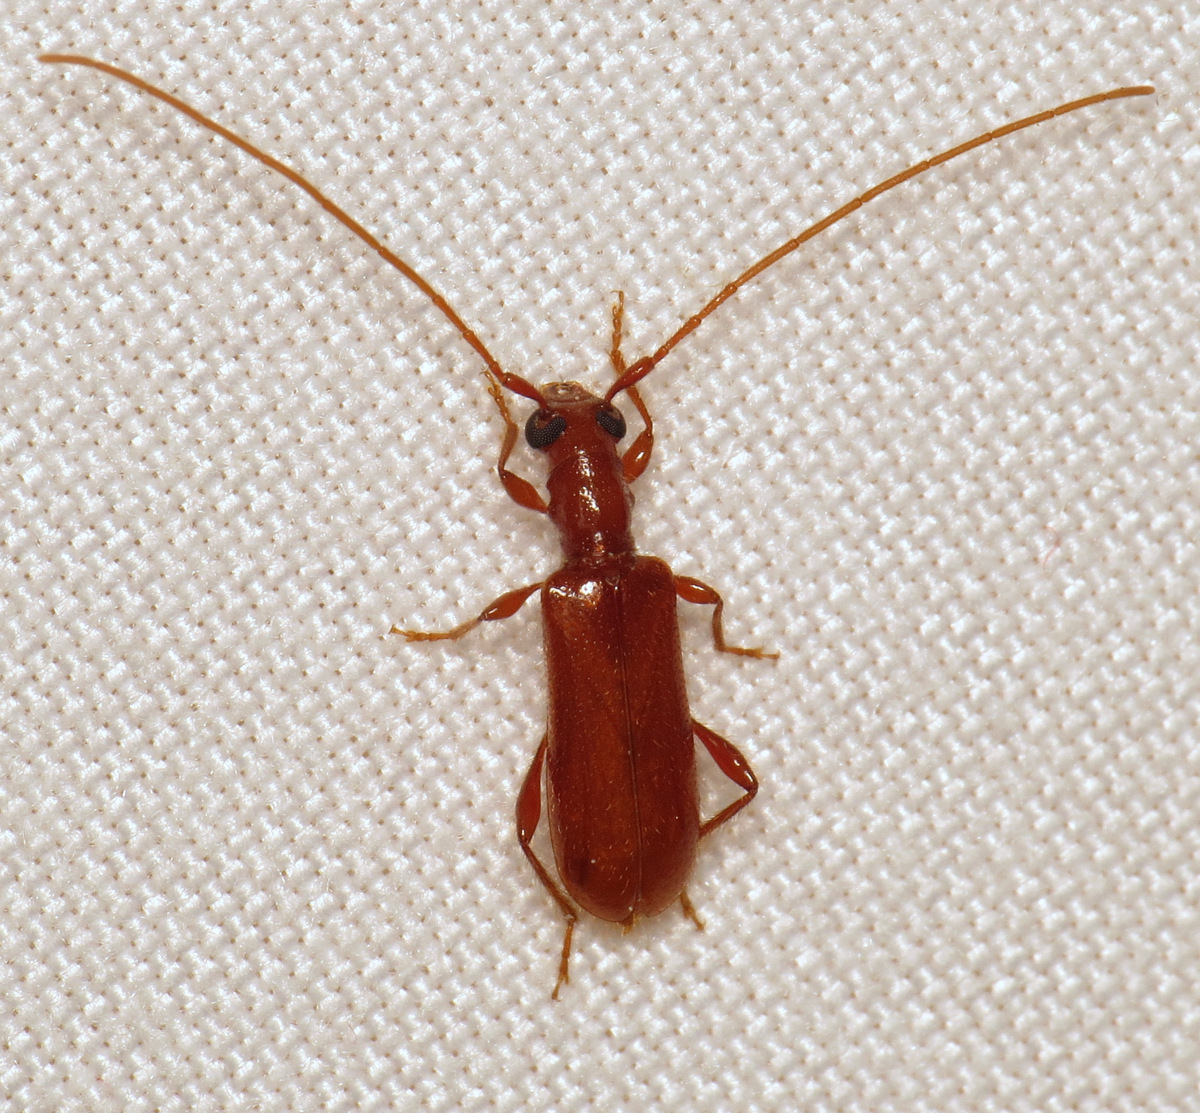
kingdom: Animalia
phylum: Arthropoda
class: Insecta
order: Coleoptera
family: Cerambycidae
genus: Obrium
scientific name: Obrium rufulum
